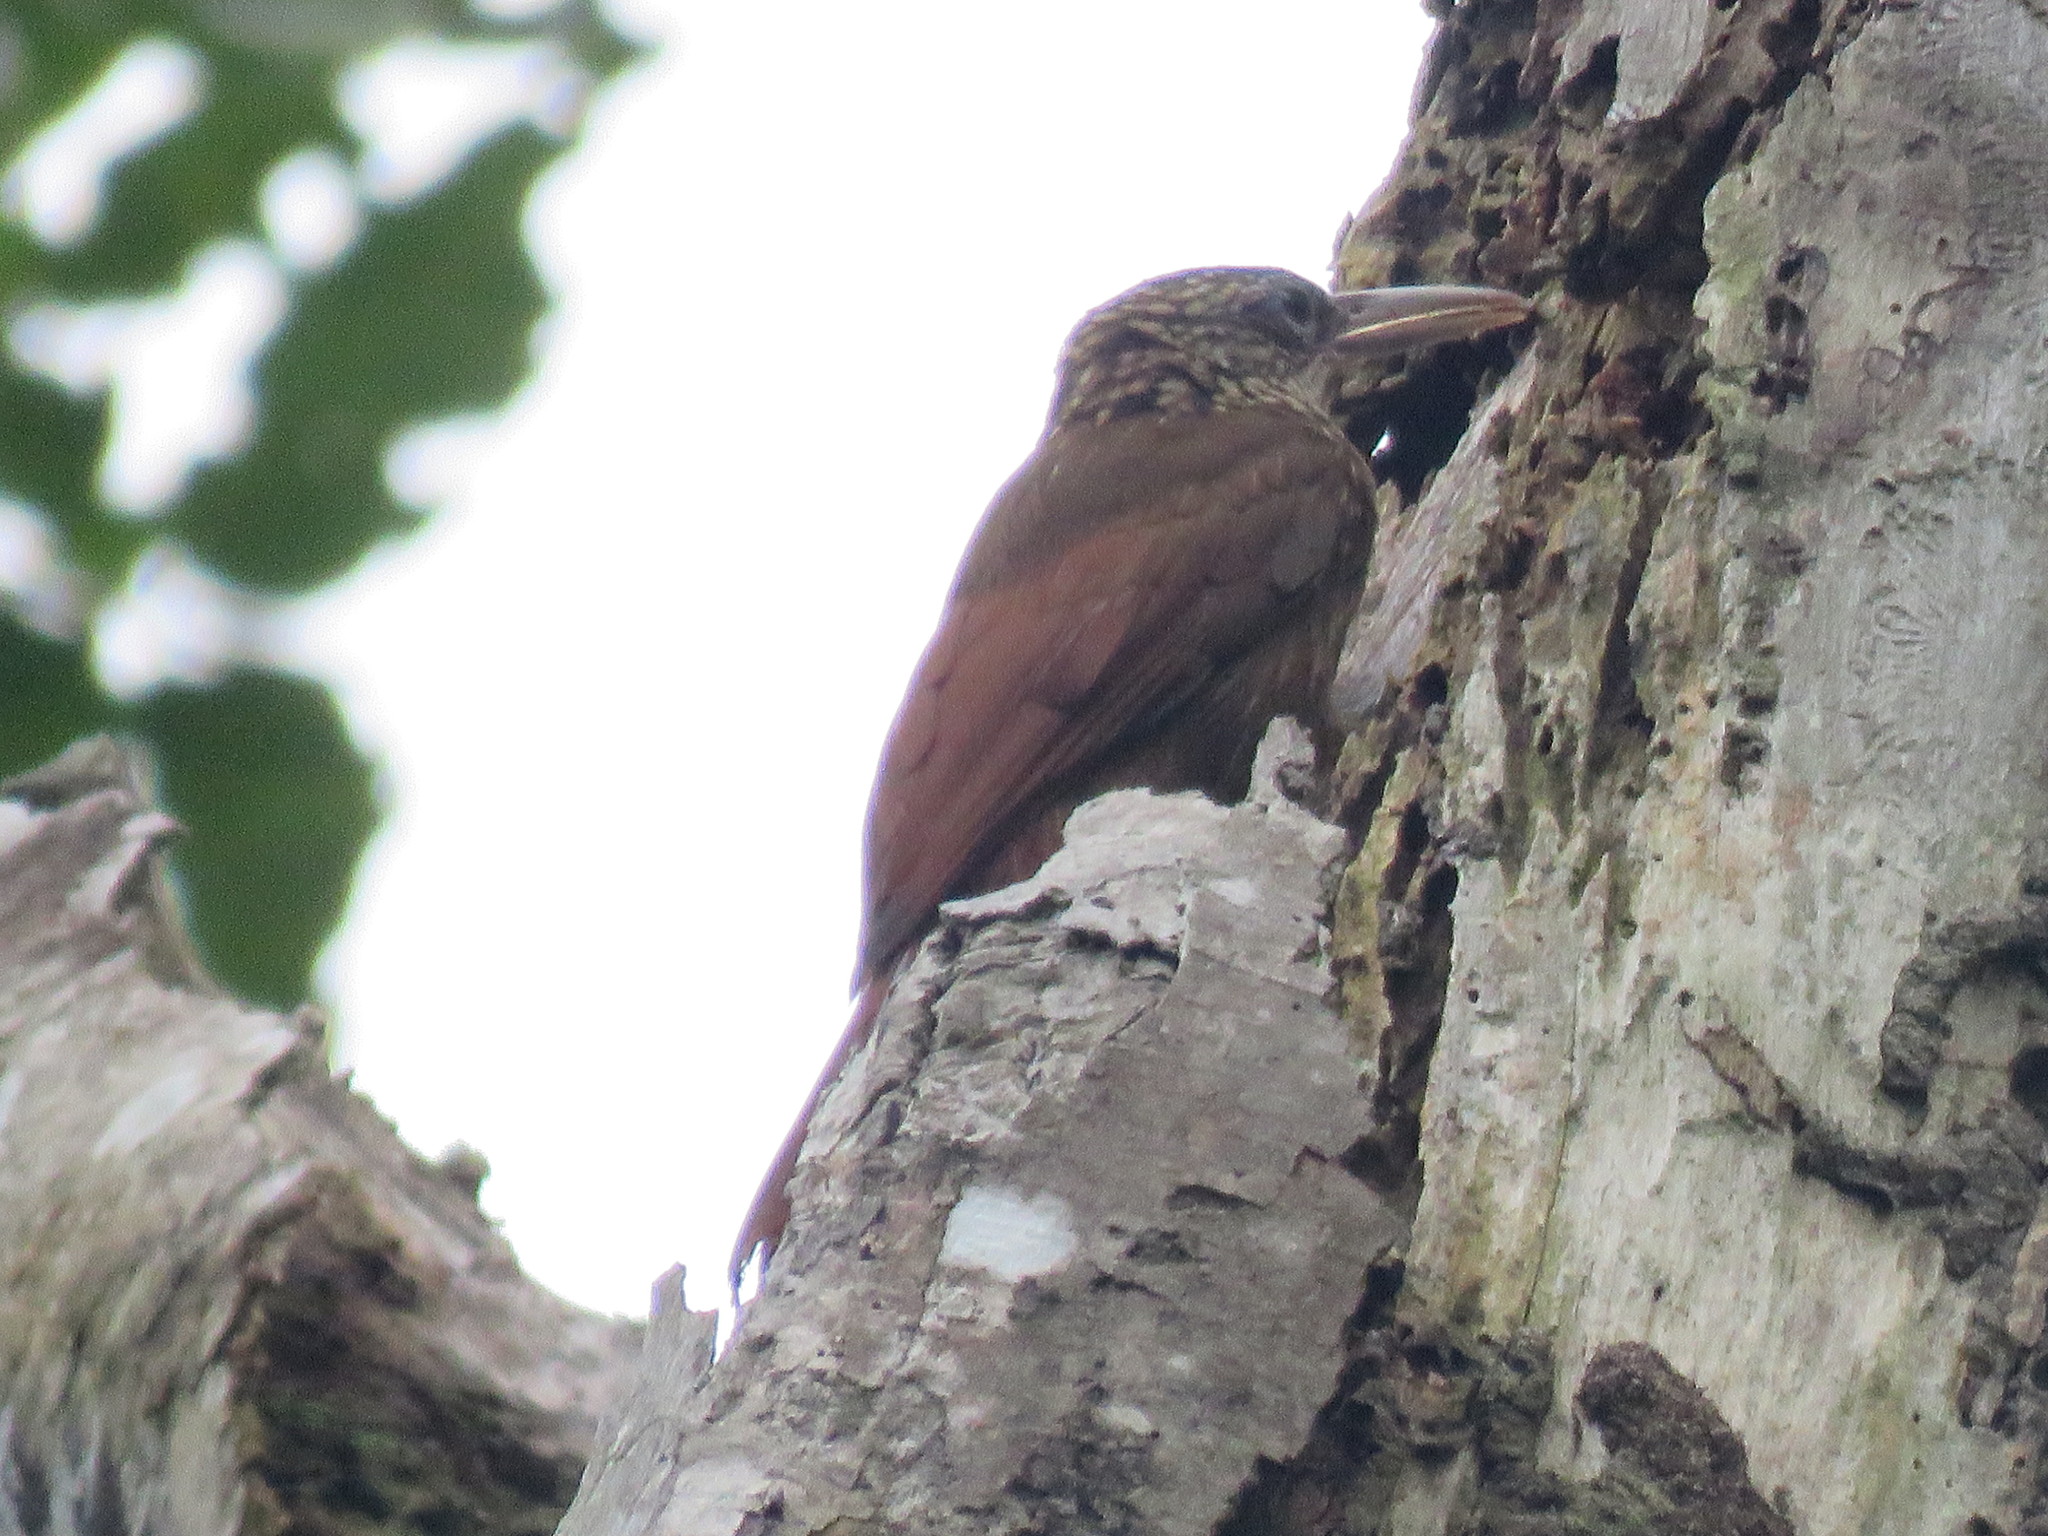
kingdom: Animalia
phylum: Chordata
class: Aves
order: Passeriformes
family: Furnariidae
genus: Xiphorhynchus
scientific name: Xiphorhynchus guttatus
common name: Buff-throated woodcreeper
